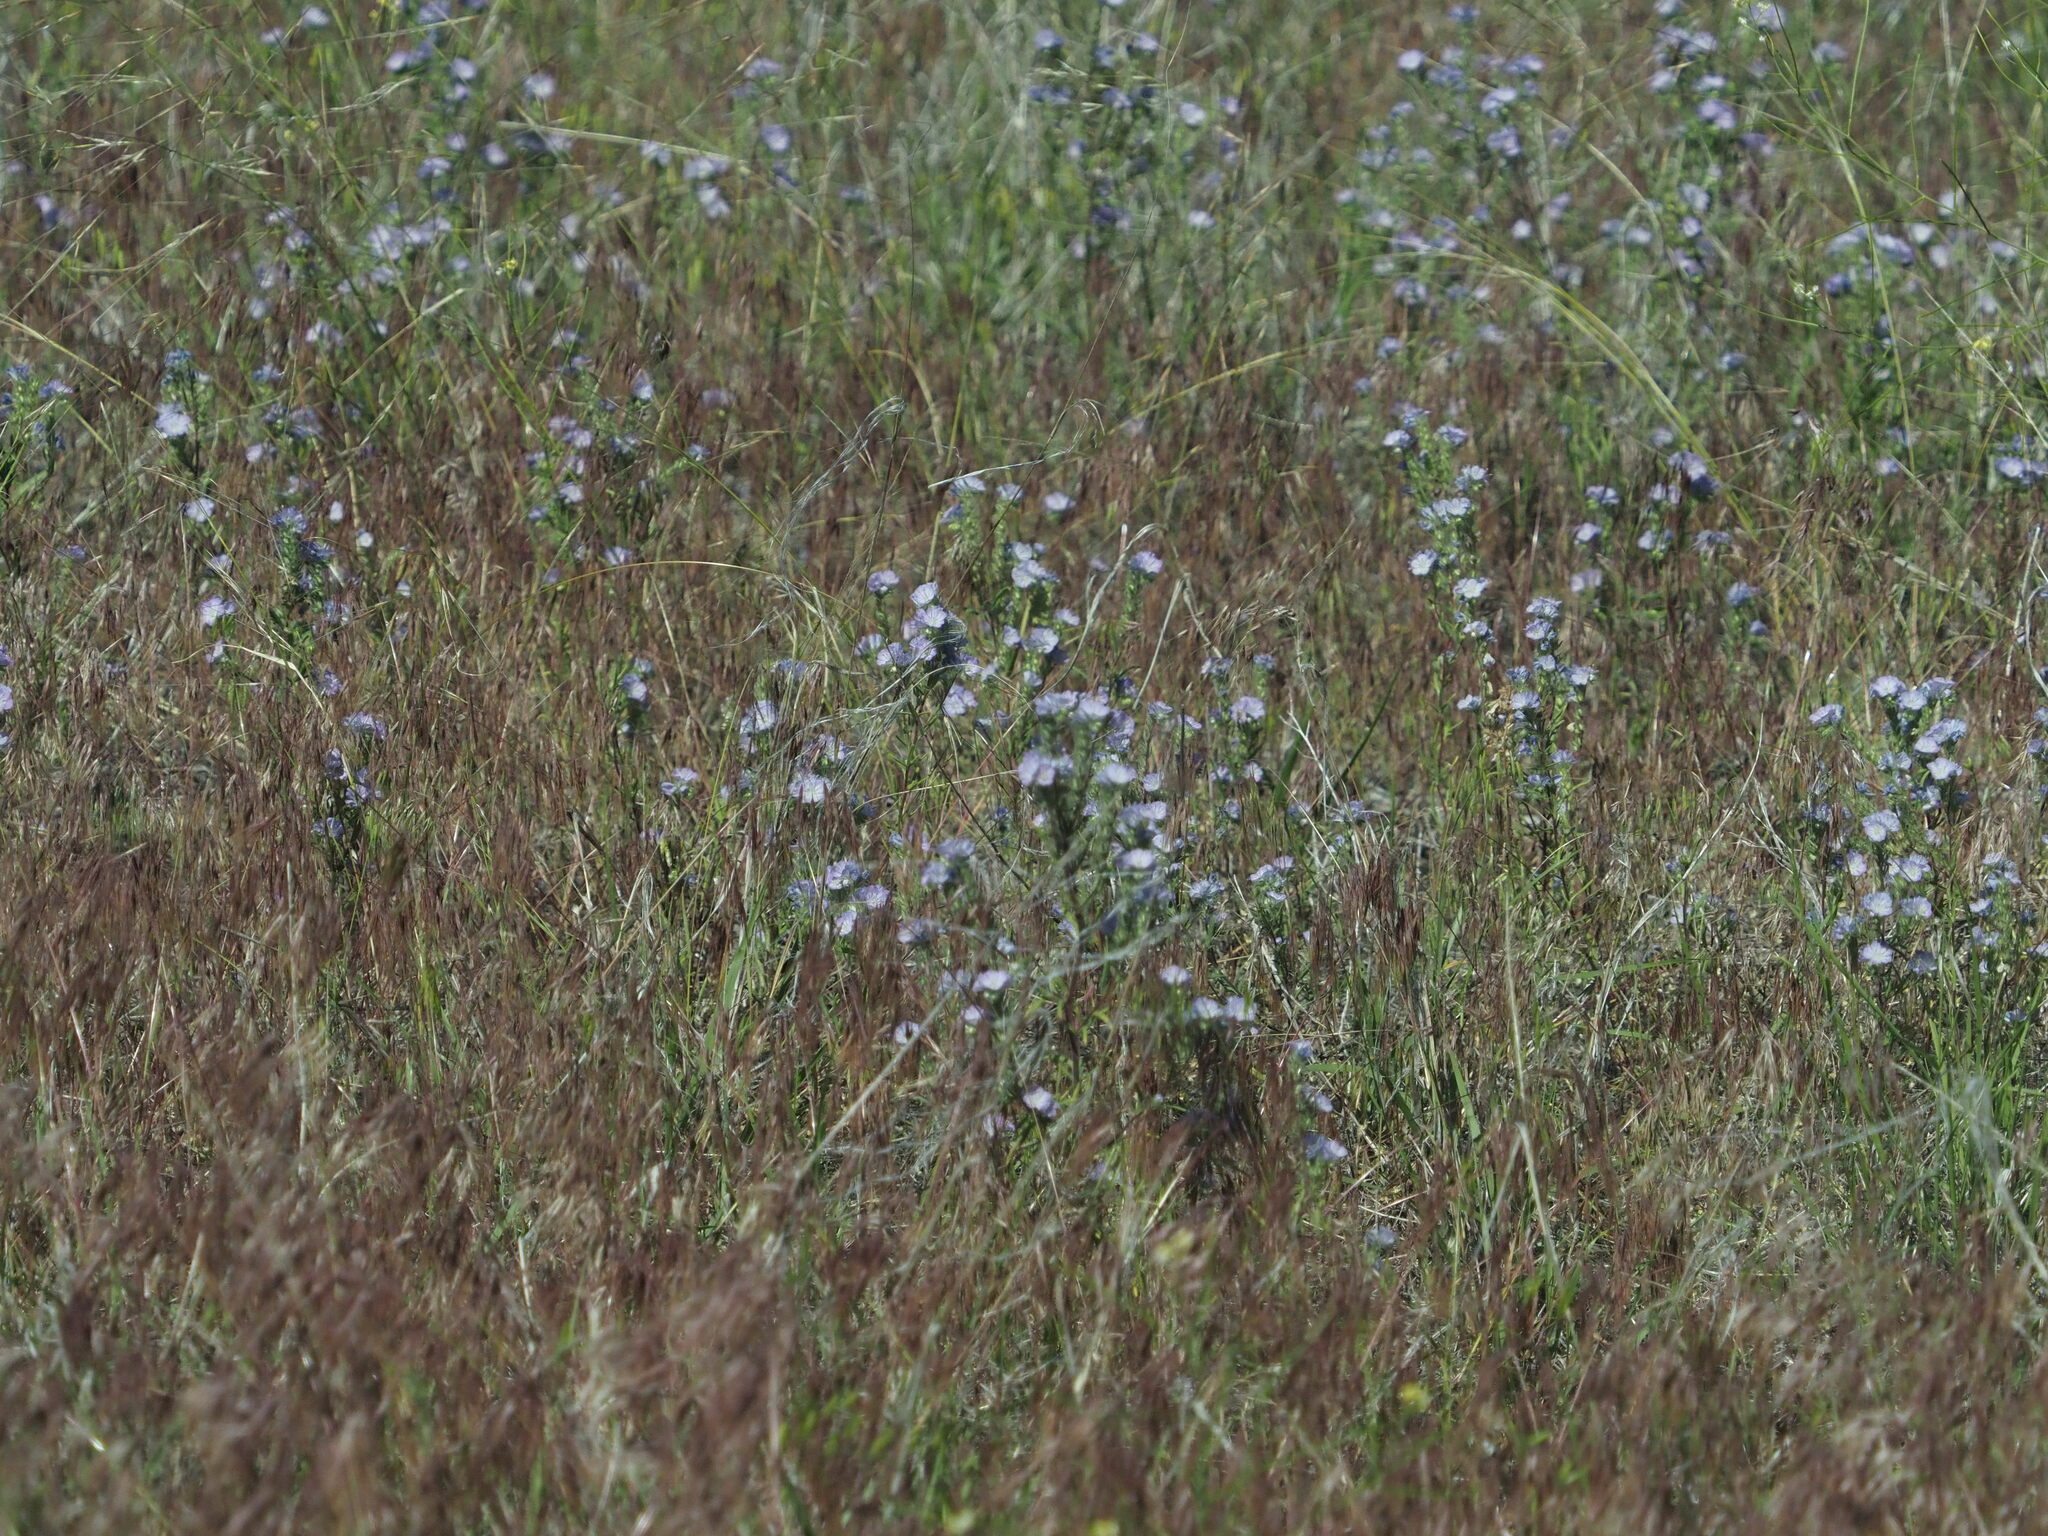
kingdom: Plantae
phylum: Tracheophyta
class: Magnoliopsida
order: Boraginales
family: Hydrophyllaceae
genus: Phacelia
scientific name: Phacelia linearis
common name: Linear-leaved phacelia
